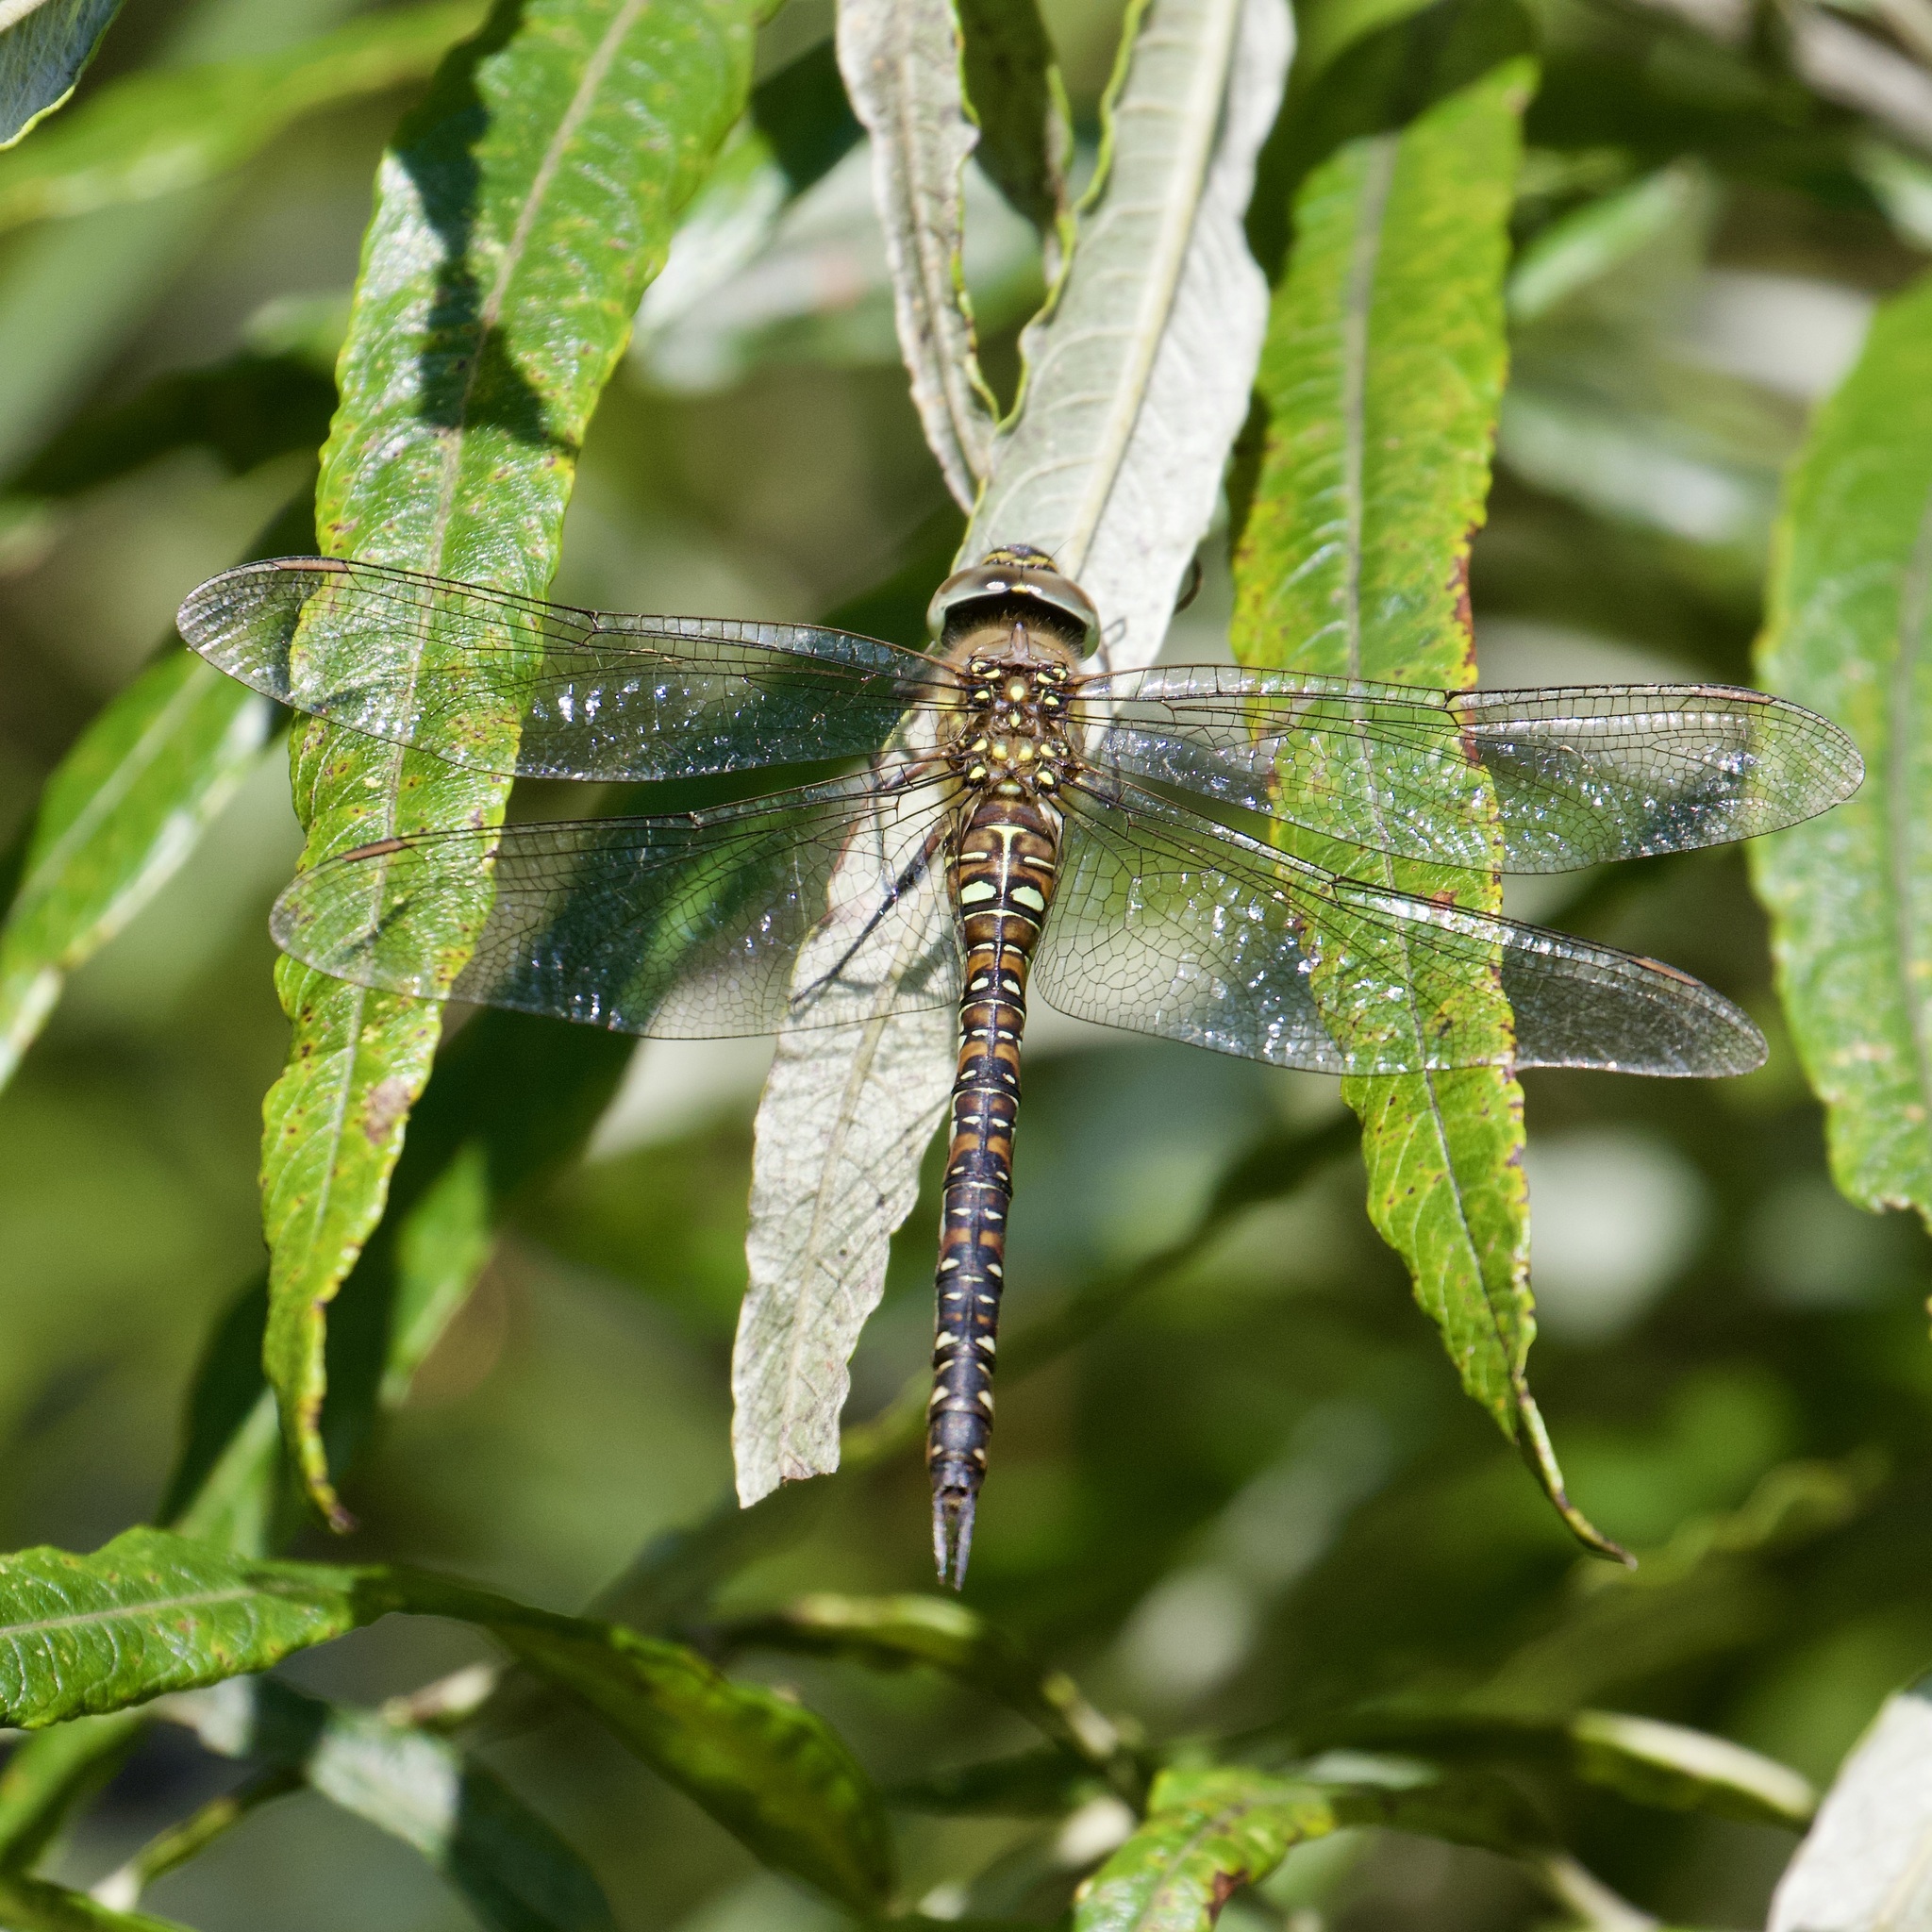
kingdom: Animalia
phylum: Arthropoda
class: Insecta
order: Odonata
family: Aeshnidae
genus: Aeshna
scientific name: Aeshna mixta
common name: Migrant hawker
